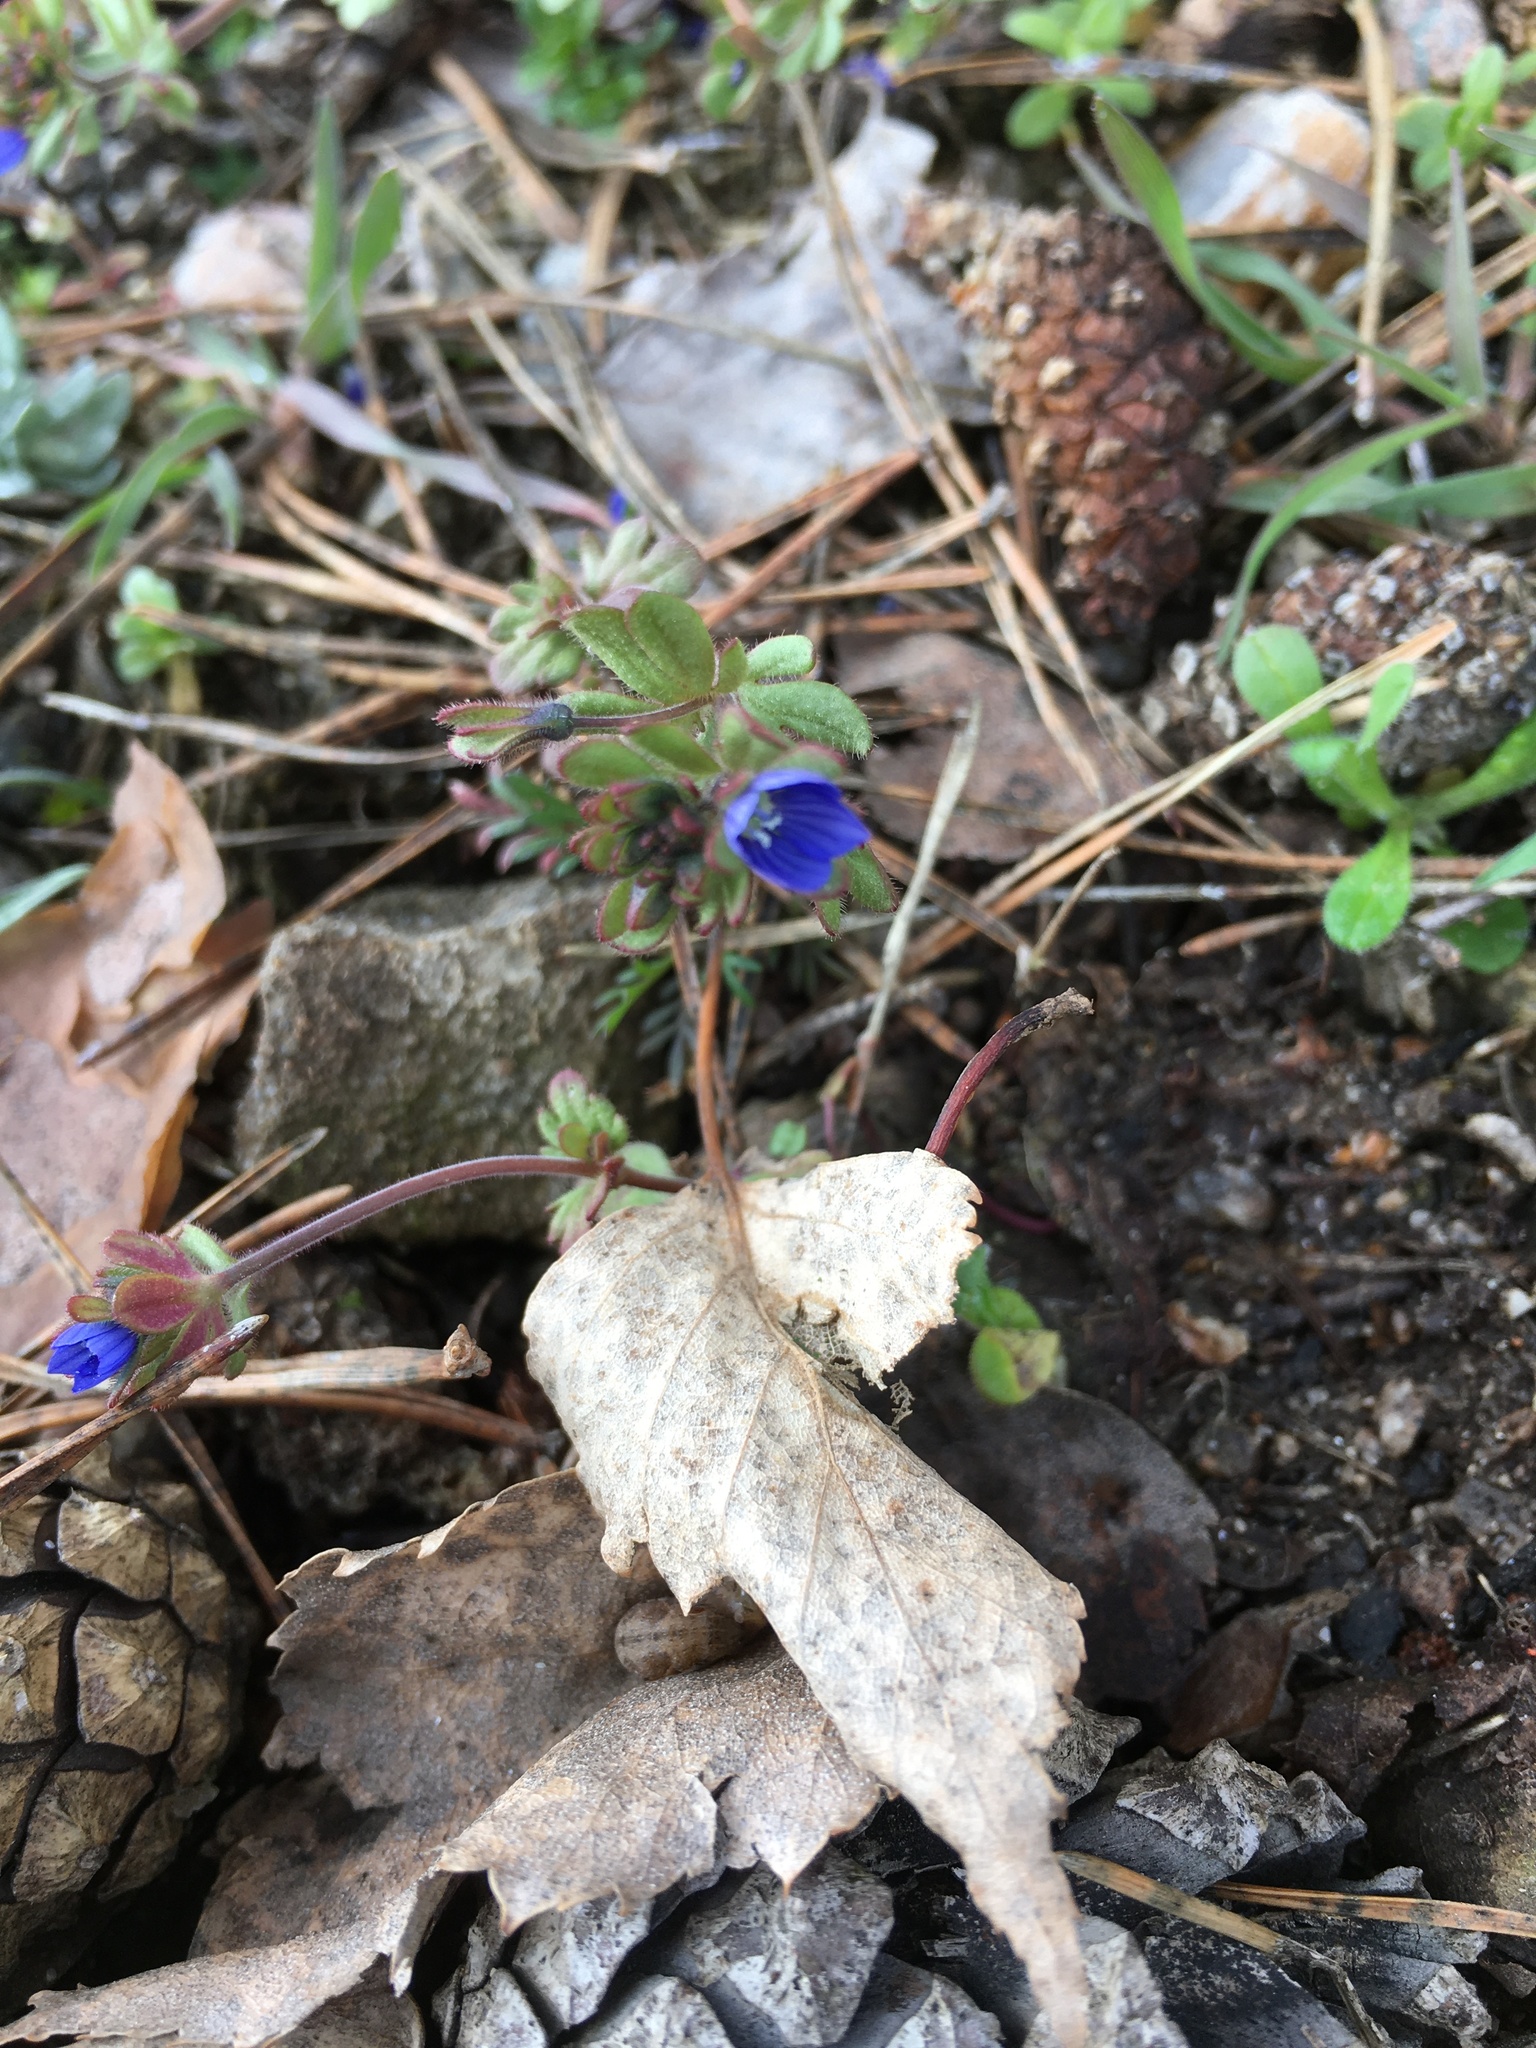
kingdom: Plantae
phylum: Tracheophyta
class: Magnoliopsida
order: Lamiales
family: Plantaginaceae
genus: Veronica
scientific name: Veronica triphyllos
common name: Fingered speedwell
